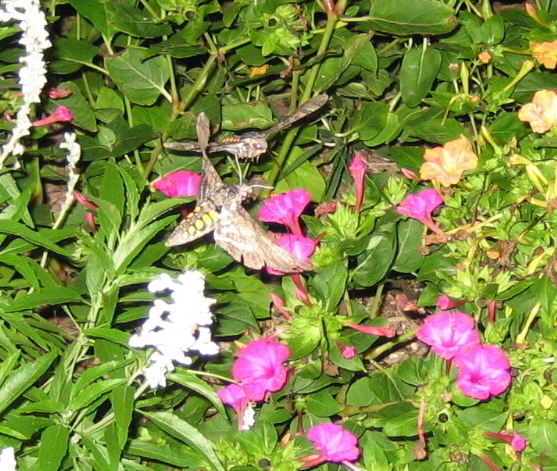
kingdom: Animalia
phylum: Arthropoda
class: Insecta
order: Lepidoptera
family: Sphingidae
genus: Manduca
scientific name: Manduca sexta
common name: Carolina sphinx
